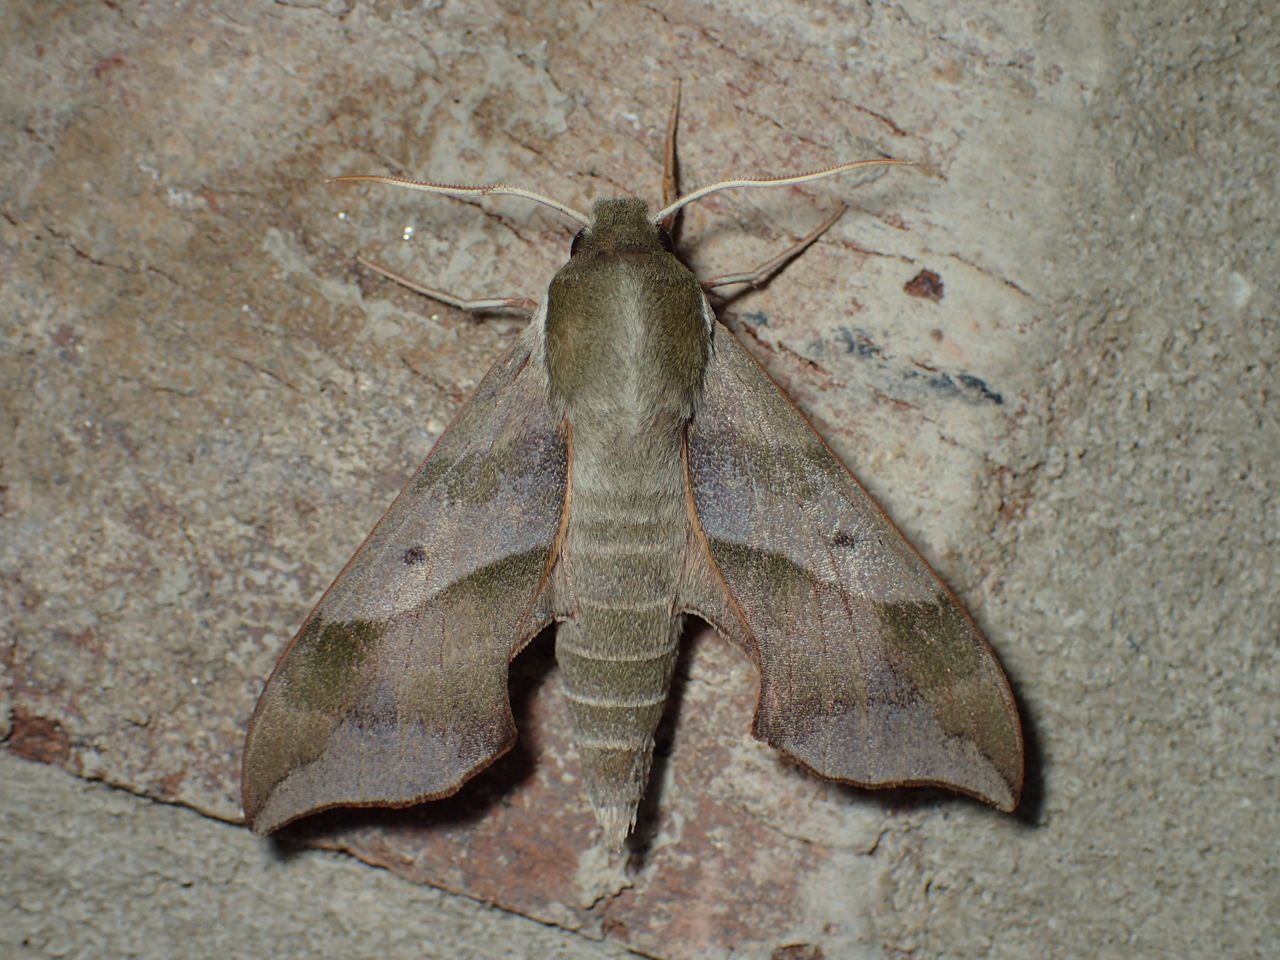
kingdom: Animalia
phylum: Arthropoda
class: Insecta
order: Lepidoptera
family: Sphingidae
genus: Darapsa
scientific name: Darapsa myron
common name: Hog sphinx
